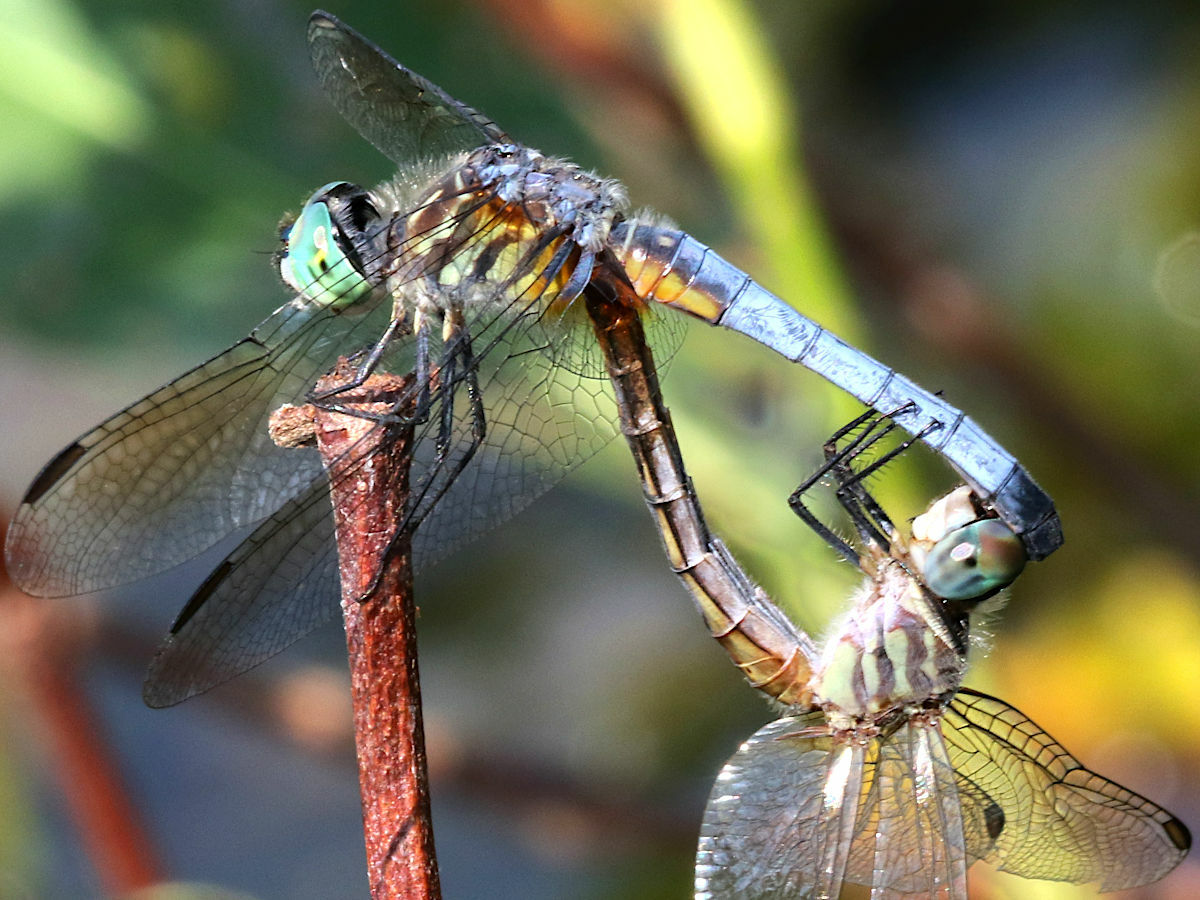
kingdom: Animalia
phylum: Arthropoda
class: Insecta
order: Odonata
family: Libellulidae
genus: Pachydiplax
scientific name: Pachydiplax longipennis
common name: Blue dasher
